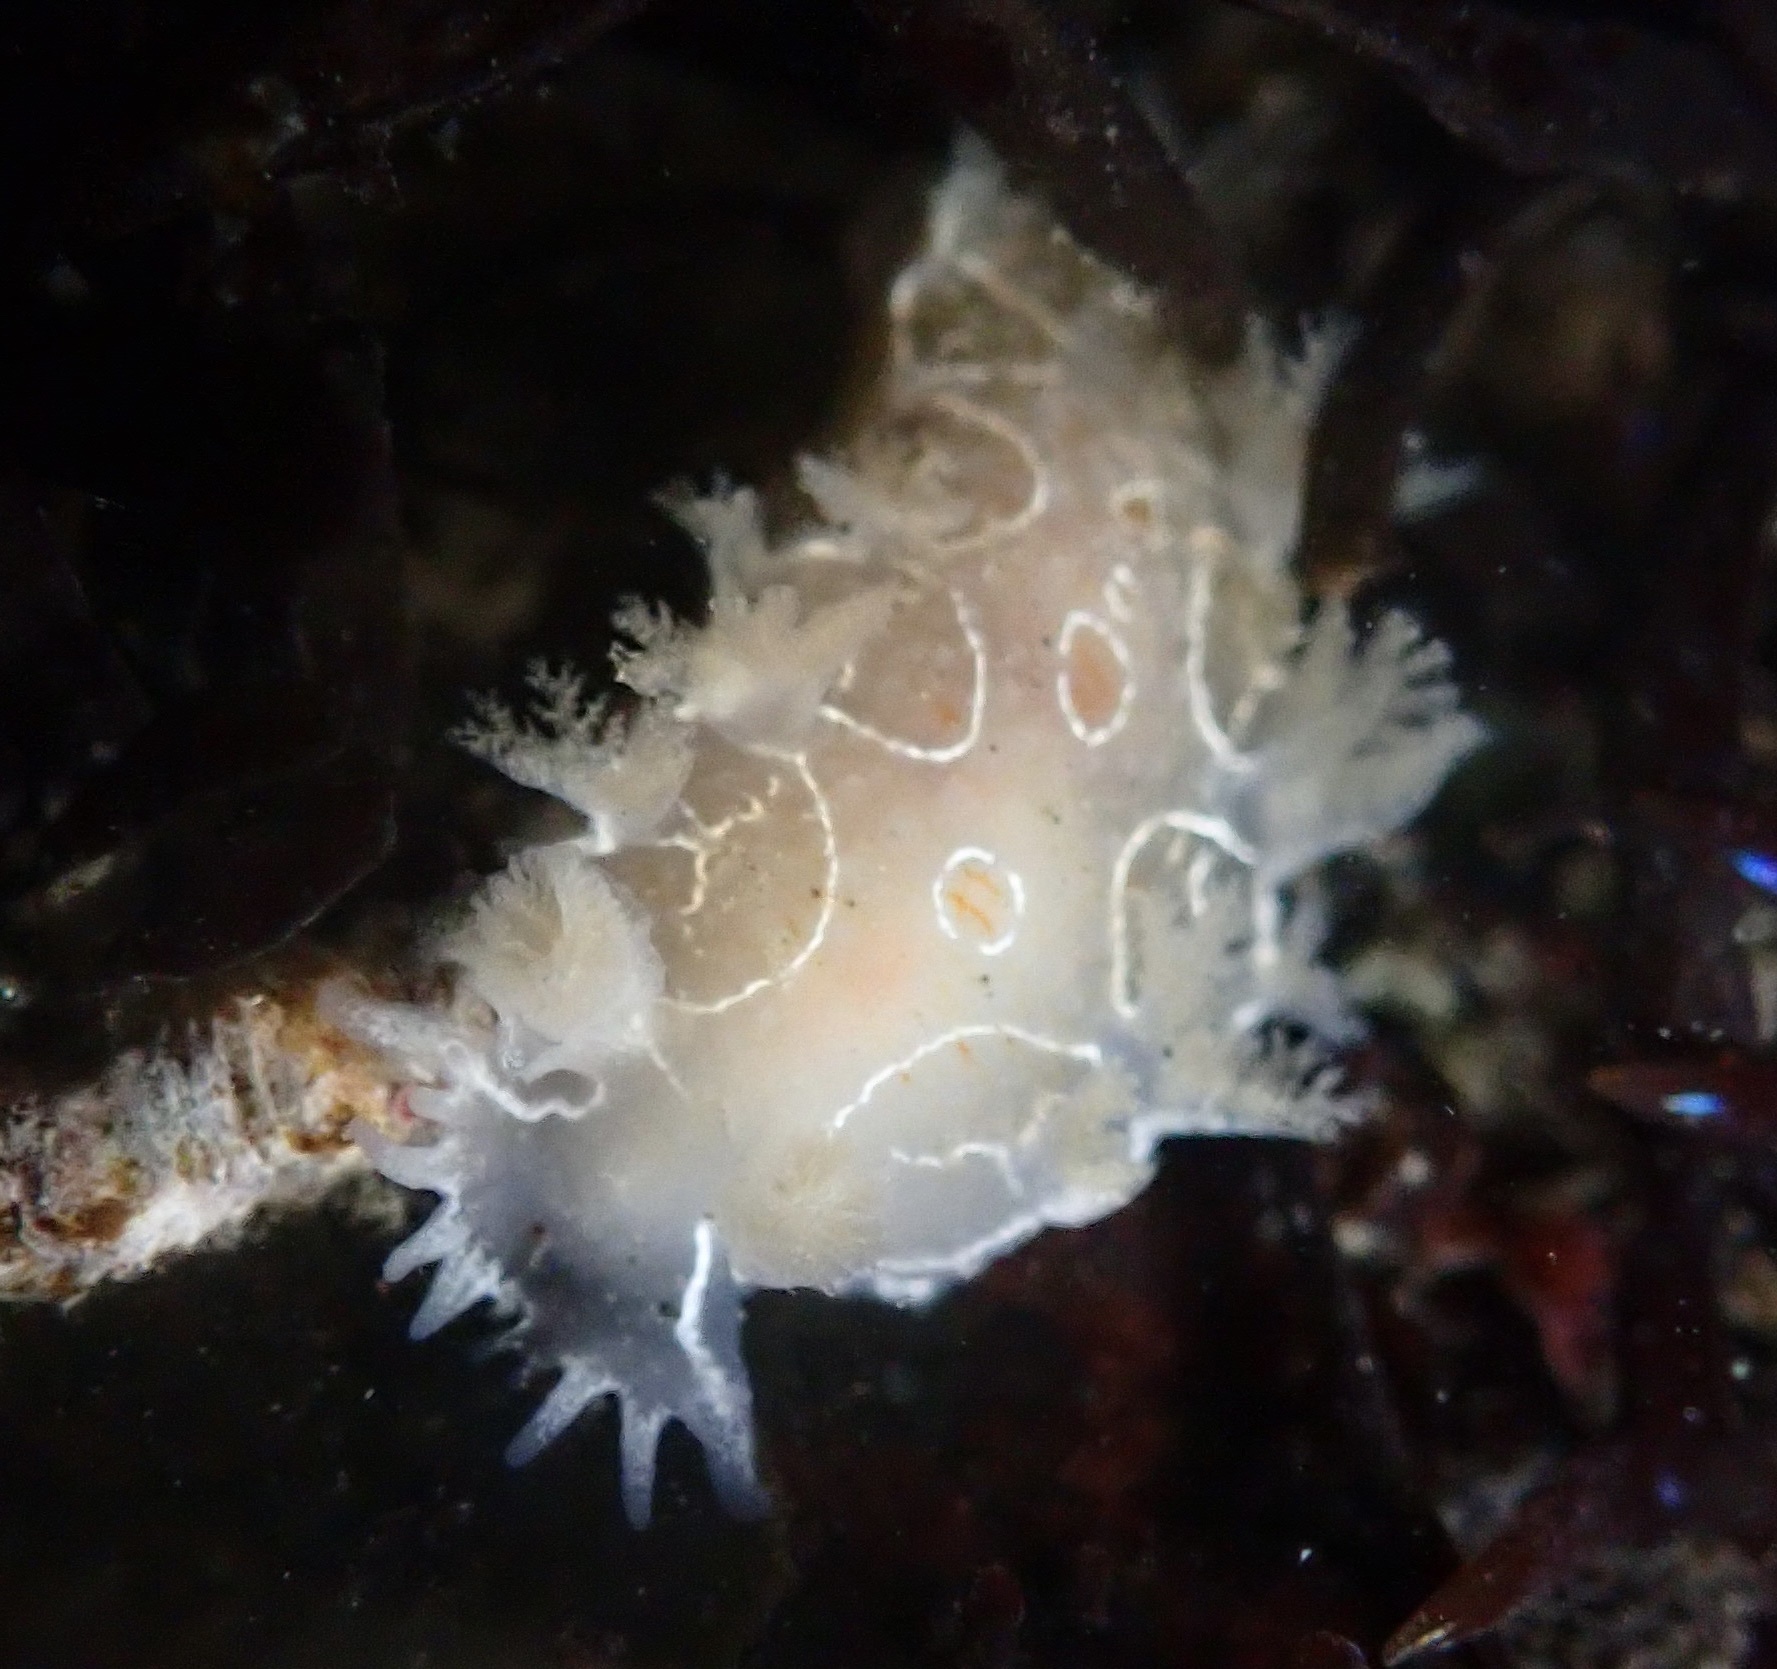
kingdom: Animalia
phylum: Mollusca
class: Gastropoda
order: Nudibranchia
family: Tritoniidae
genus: Tritonia
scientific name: Tritonia festiva
